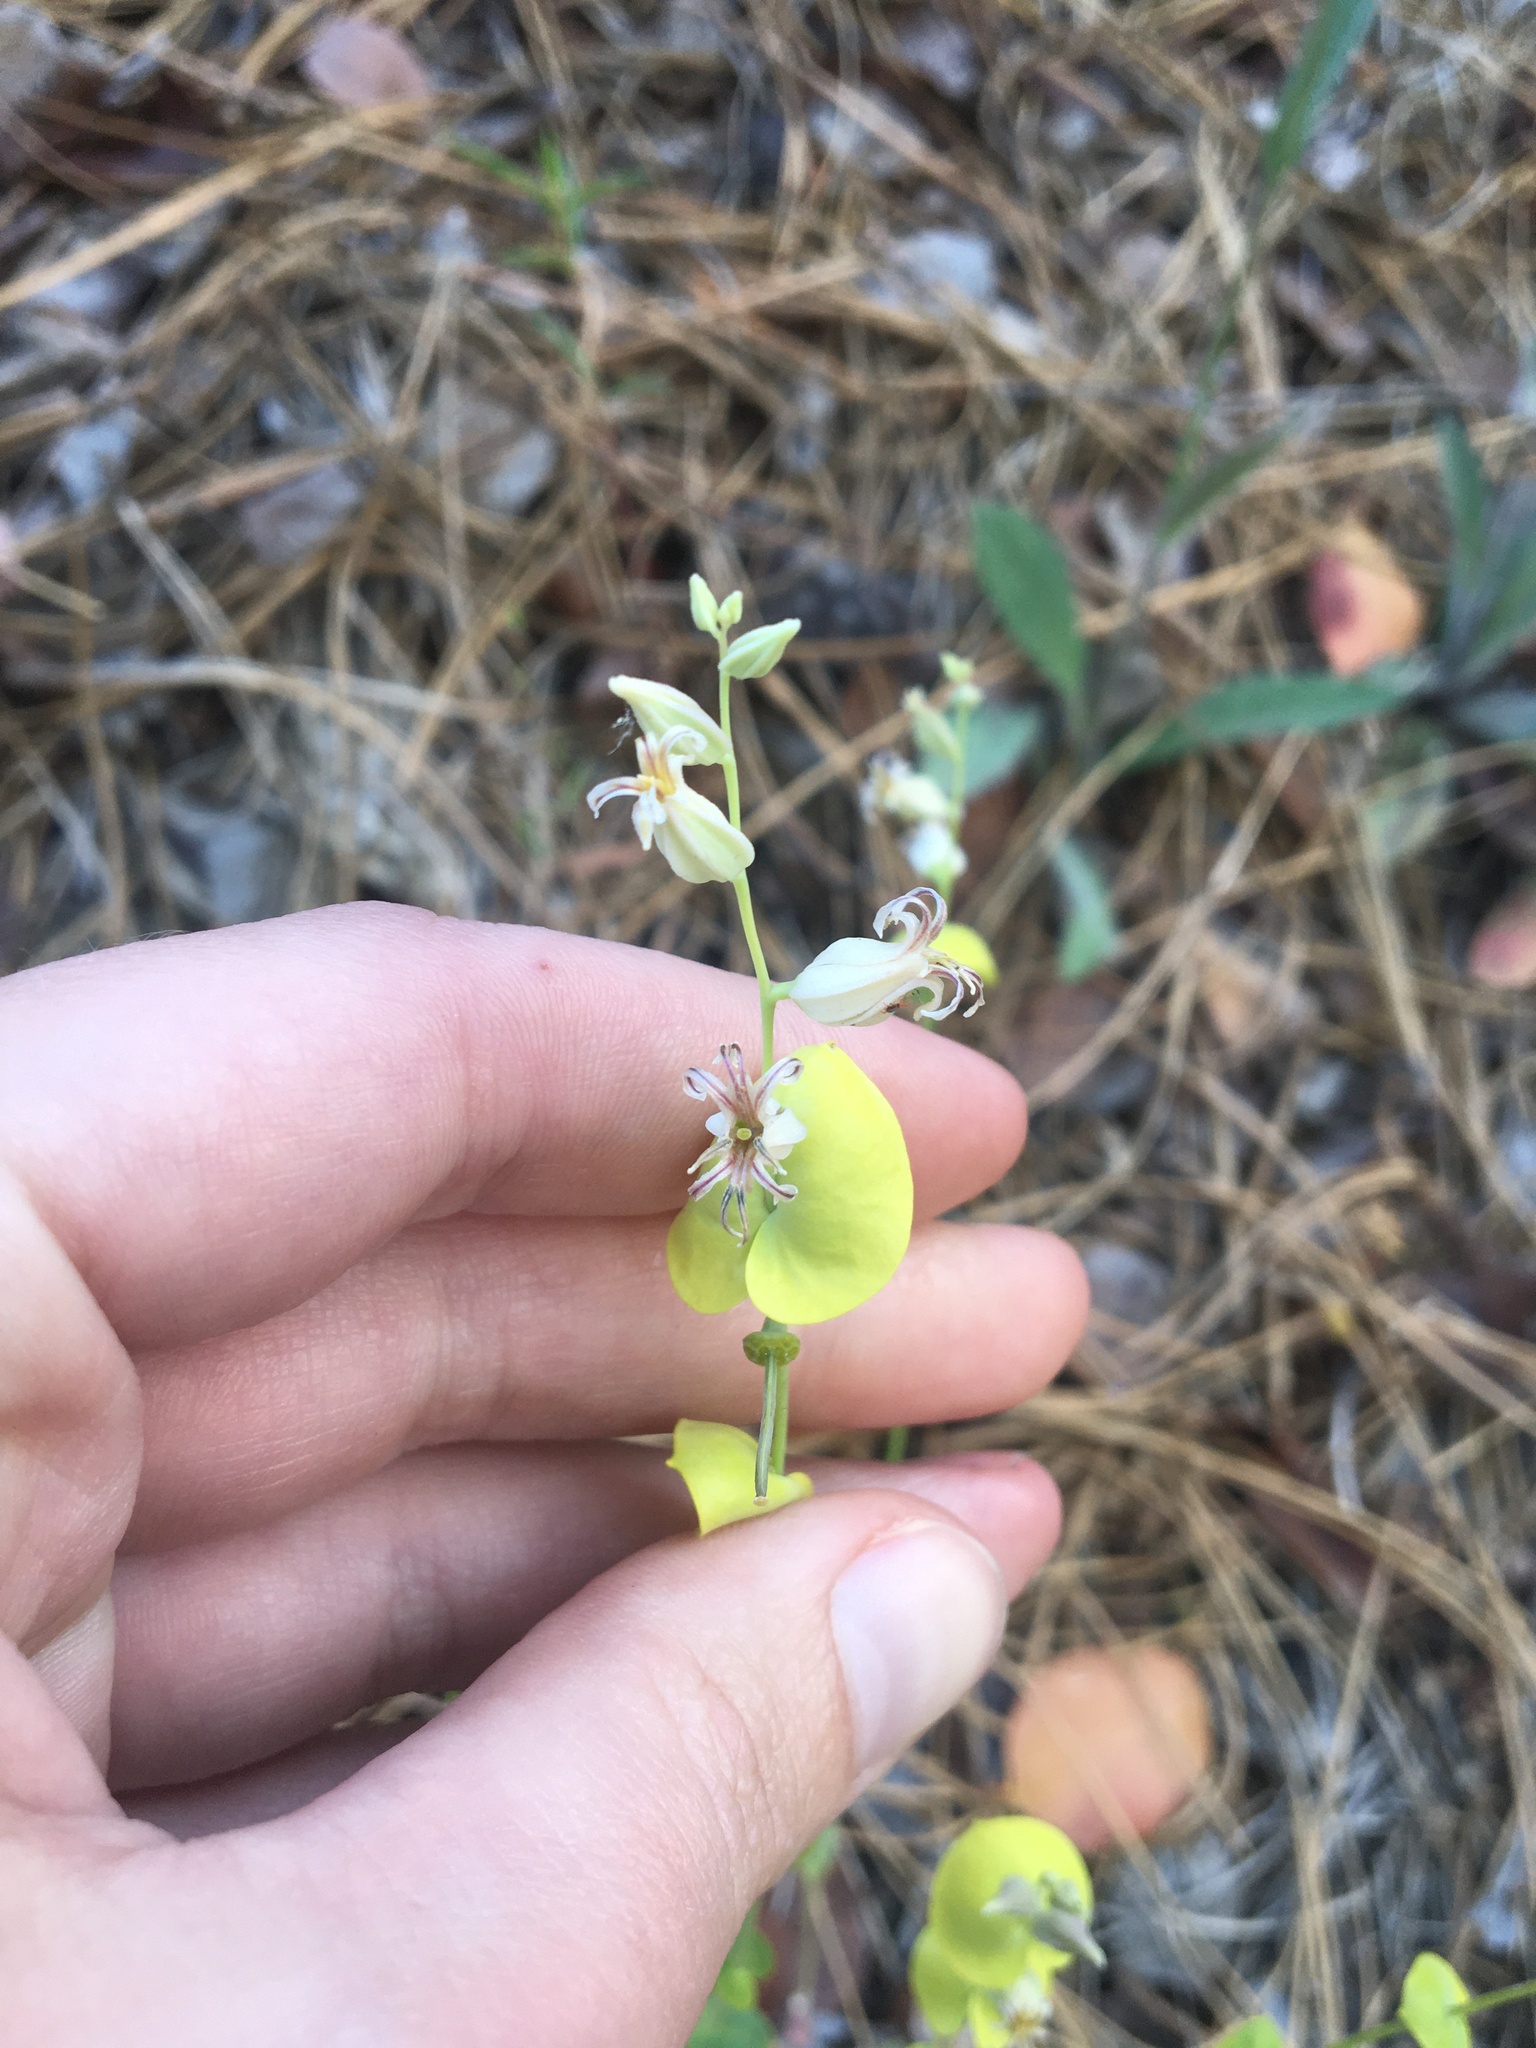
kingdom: Plantae
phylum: Tracheophyta
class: Magnoliopsida
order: Brassicales
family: Brassicaceae
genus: Streptanthus
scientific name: Streptanthus tortuosus
